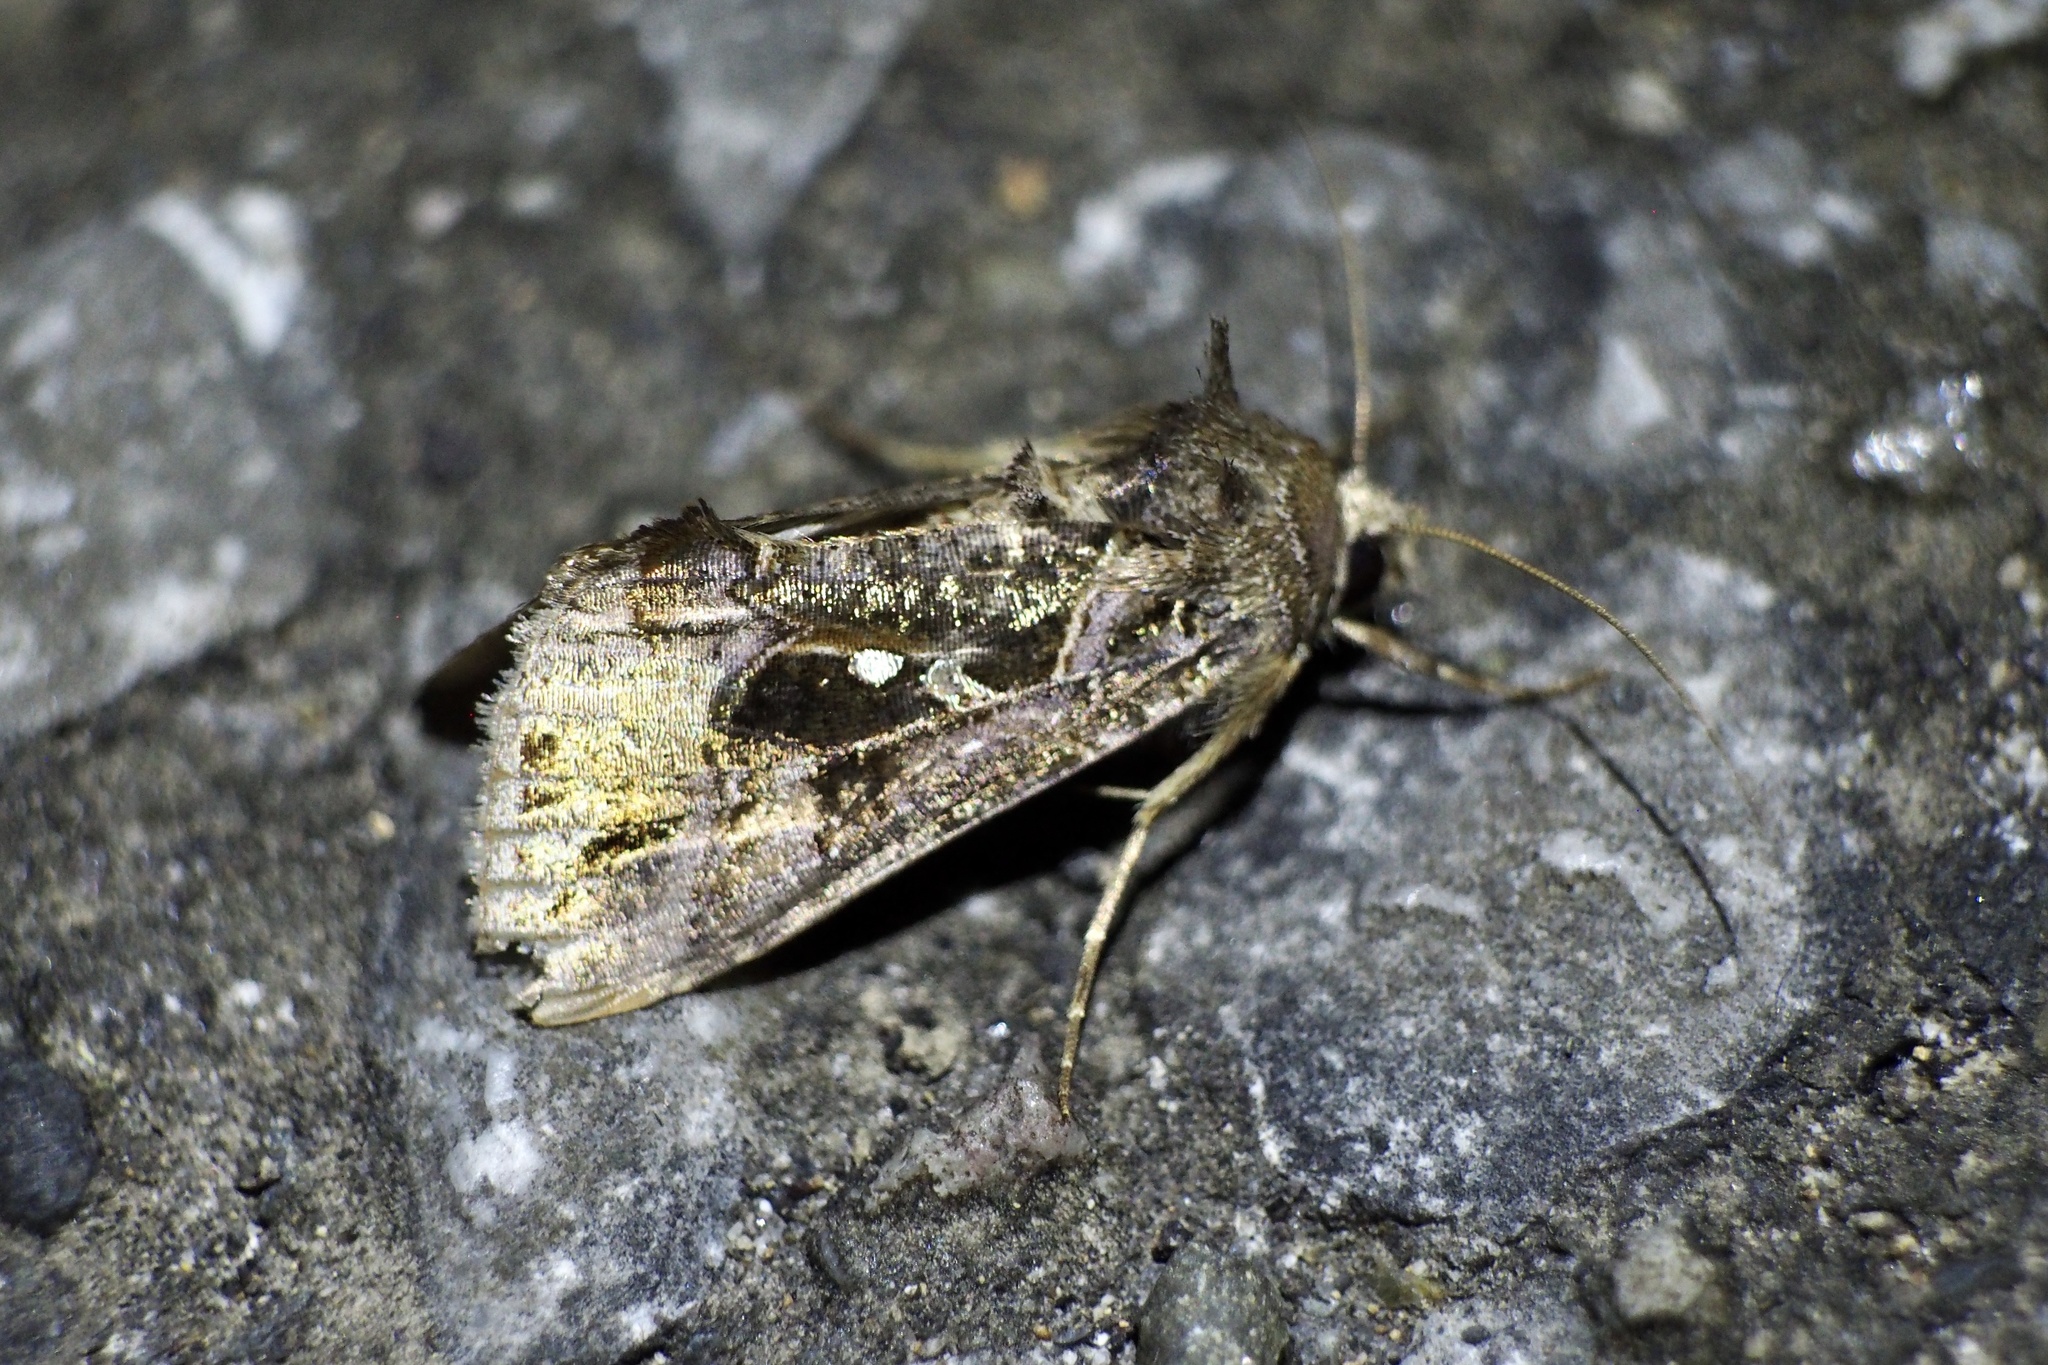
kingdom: Animalia
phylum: Arthropoda
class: Insecta
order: Lepidoptera
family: Noctuidae
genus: Ctenoplusia
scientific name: Ctenoplusia agnata
